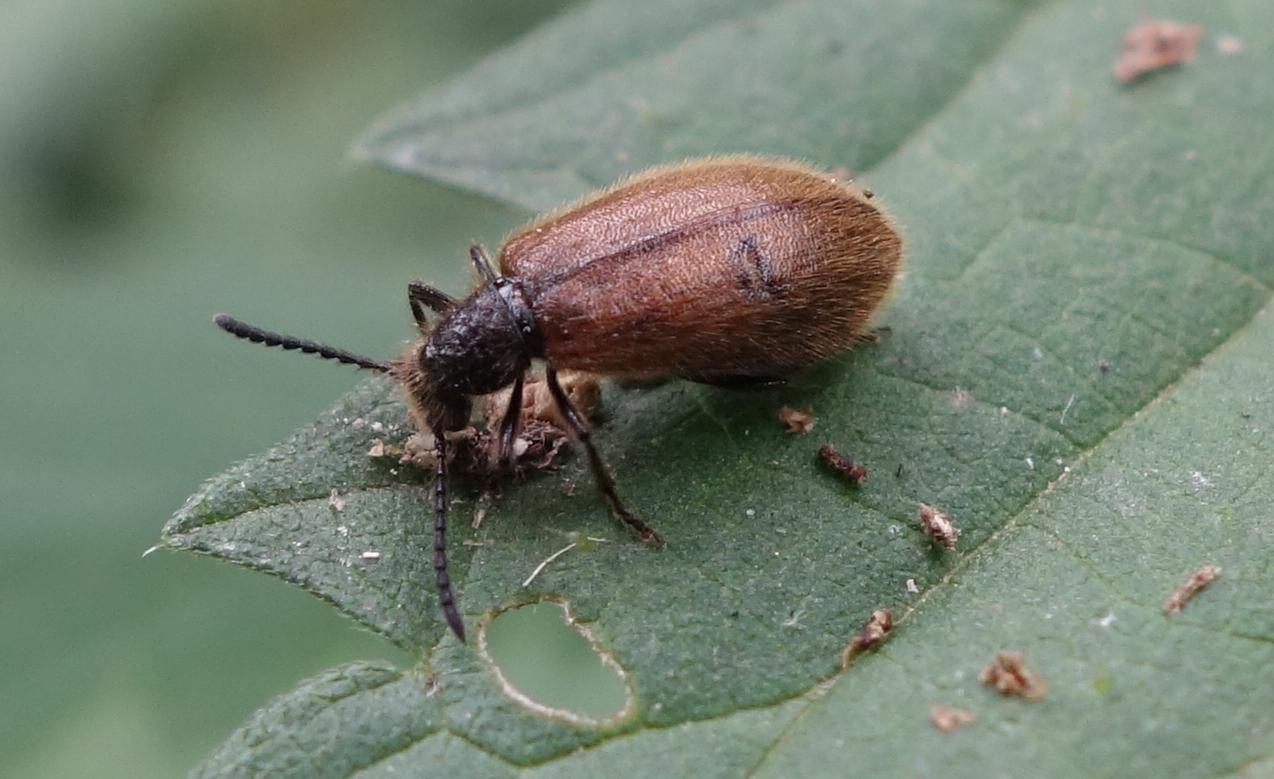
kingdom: Animalia
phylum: Arthropoda
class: Insecta
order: Coleoptera
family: Tenebrionidae
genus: Lagria
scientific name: Lagria hirta
